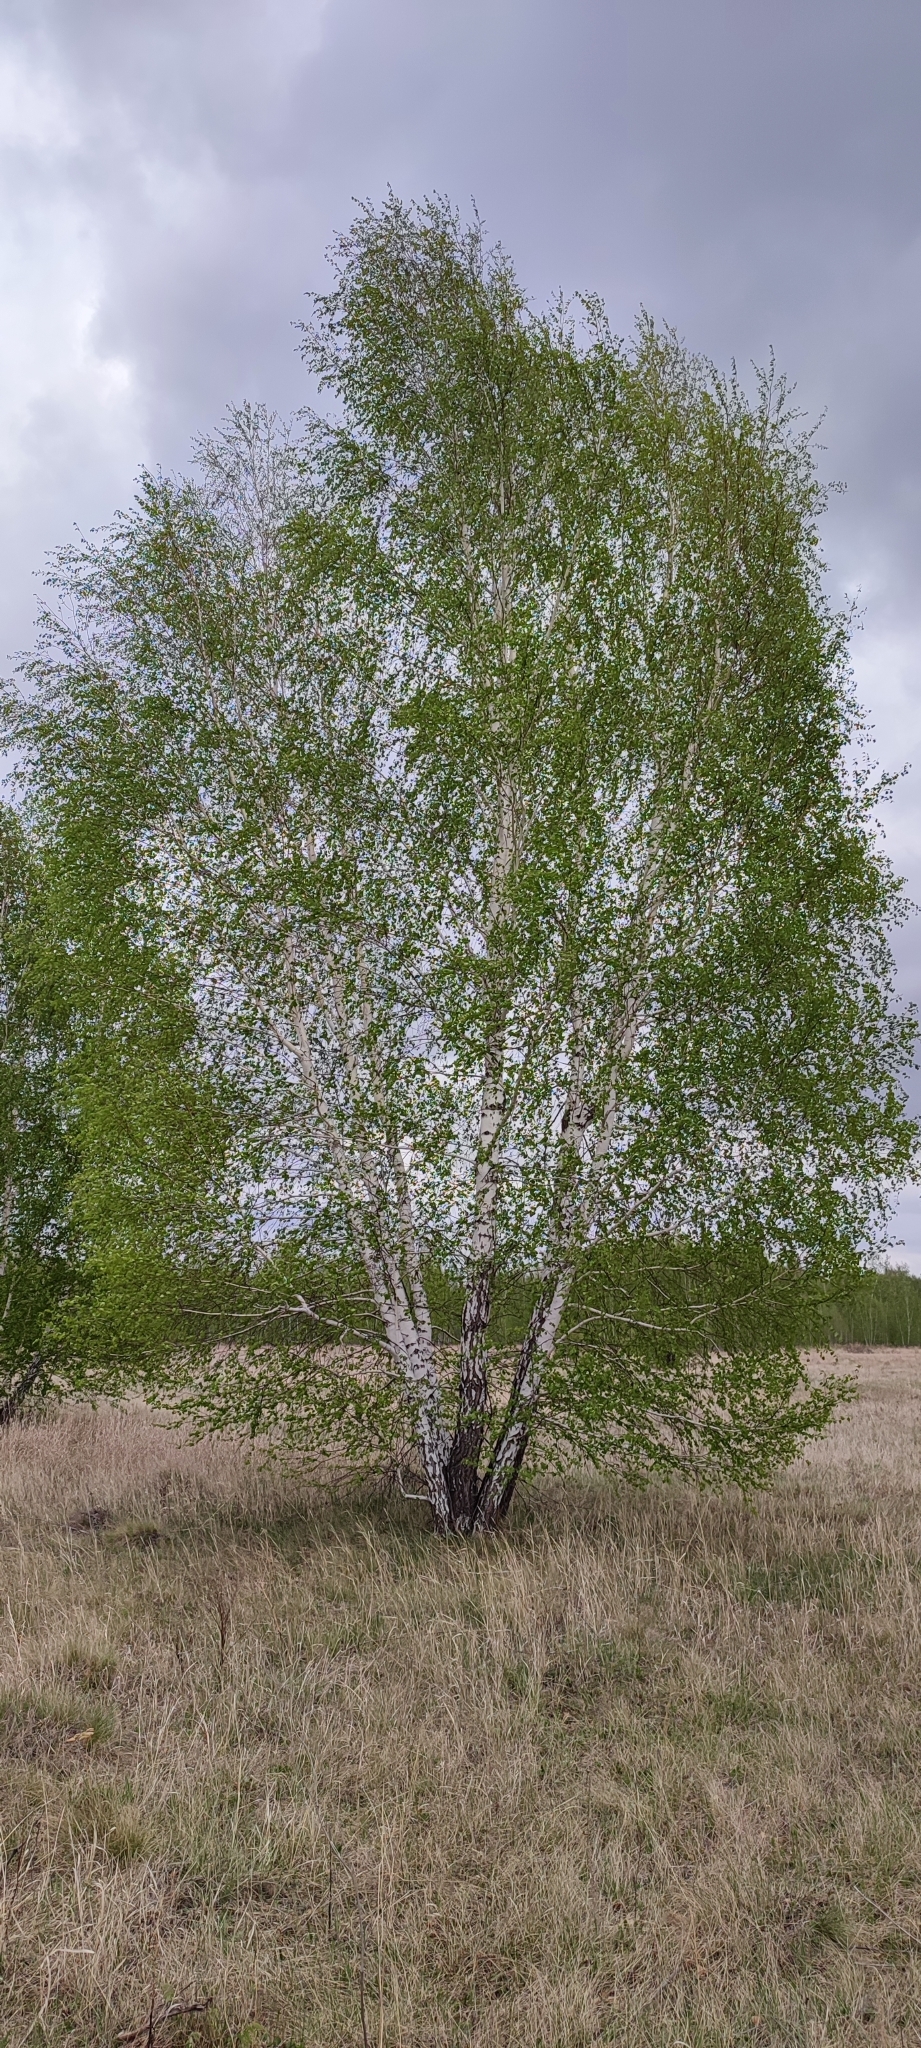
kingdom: Plantae
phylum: Tracheophyta
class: Magnoliopsida
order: Fagales
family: Betulaceae
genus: Betula
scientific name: Betula pendula
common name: Silver birch
